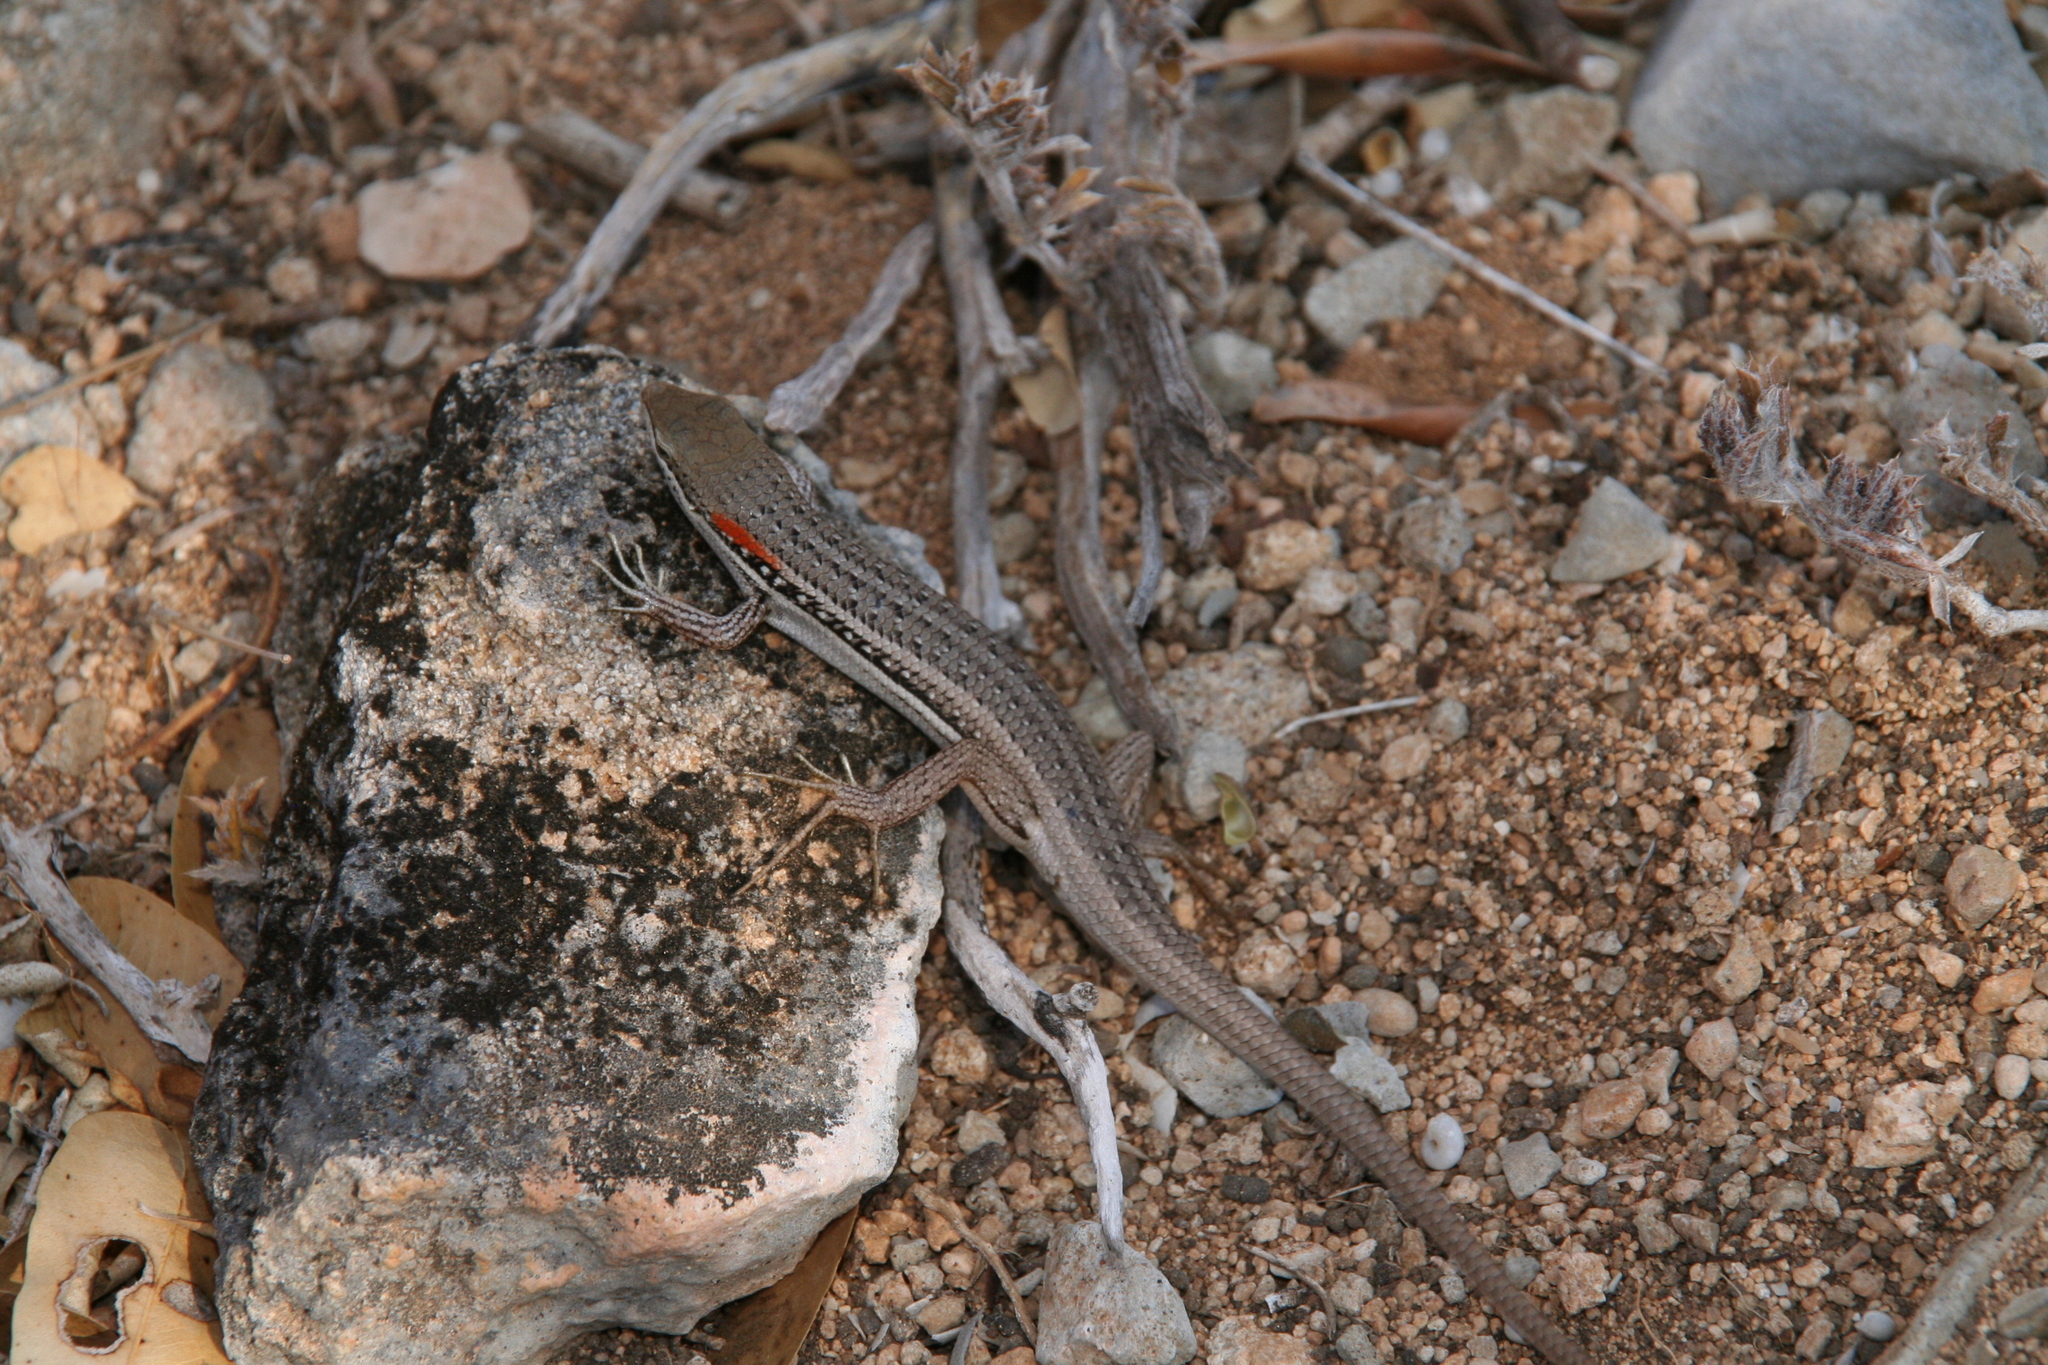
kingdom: Animalia
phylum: Chordata
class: Squamata
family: Scincidae
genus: Trachylepis
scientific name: Trachylepis elegans
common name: Elegant mabuya
